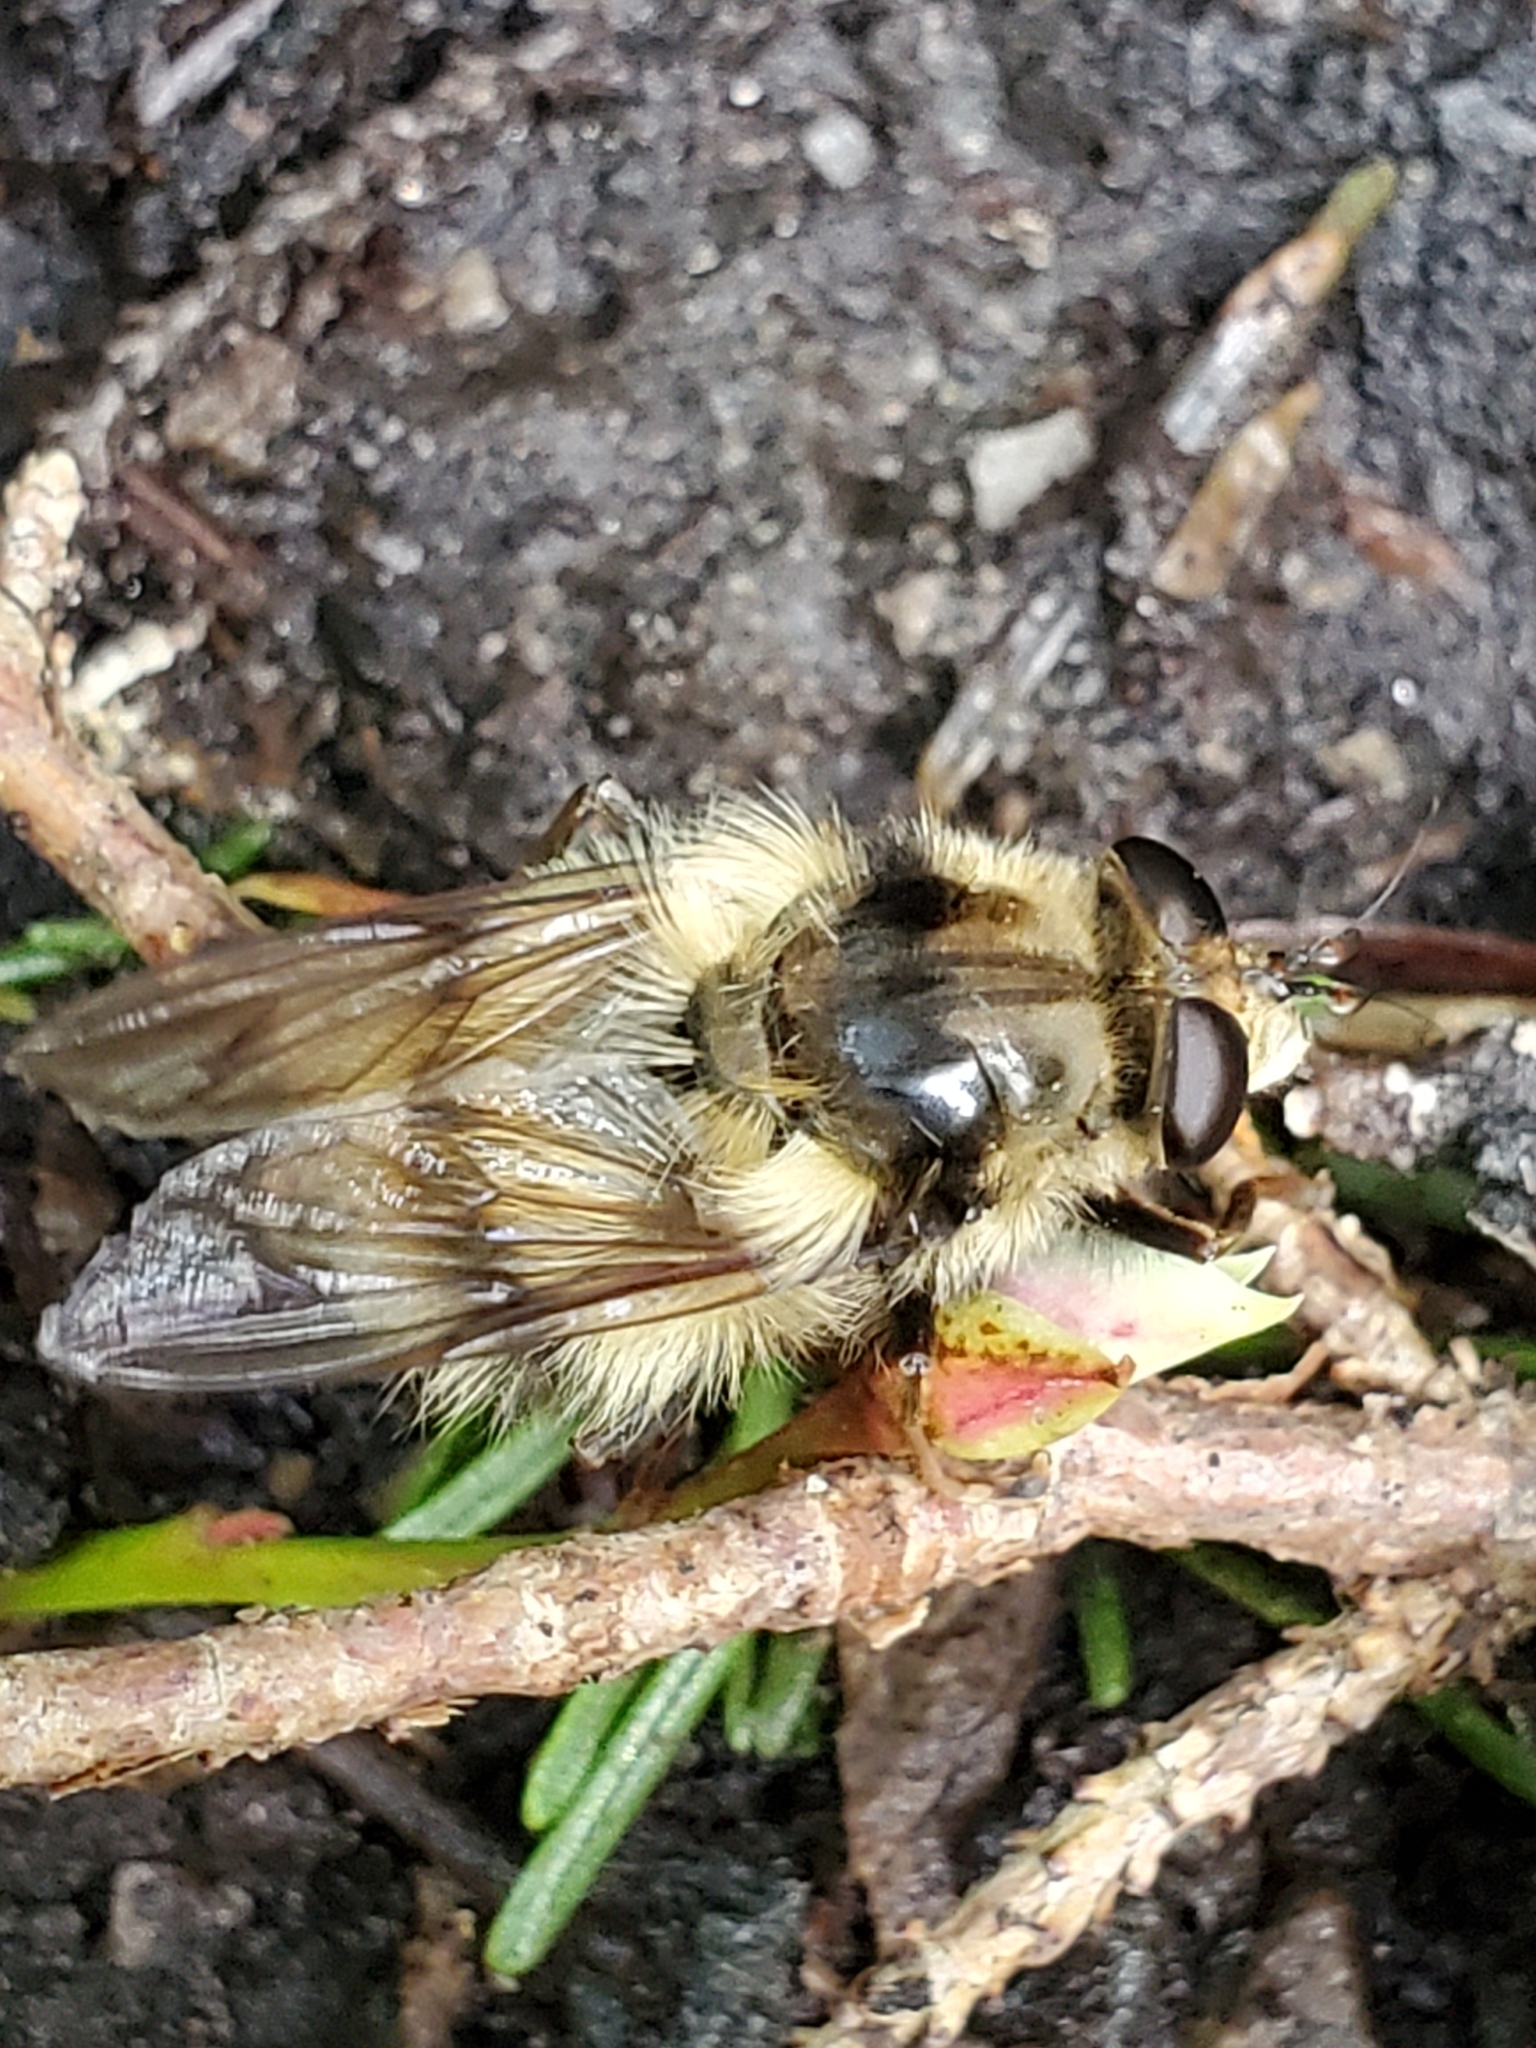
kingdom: Animalia
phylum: Arthropoda
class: Insecta
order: Diptera
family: Syrphidae
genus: Criorhina
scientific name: Criorhina bubulcus
